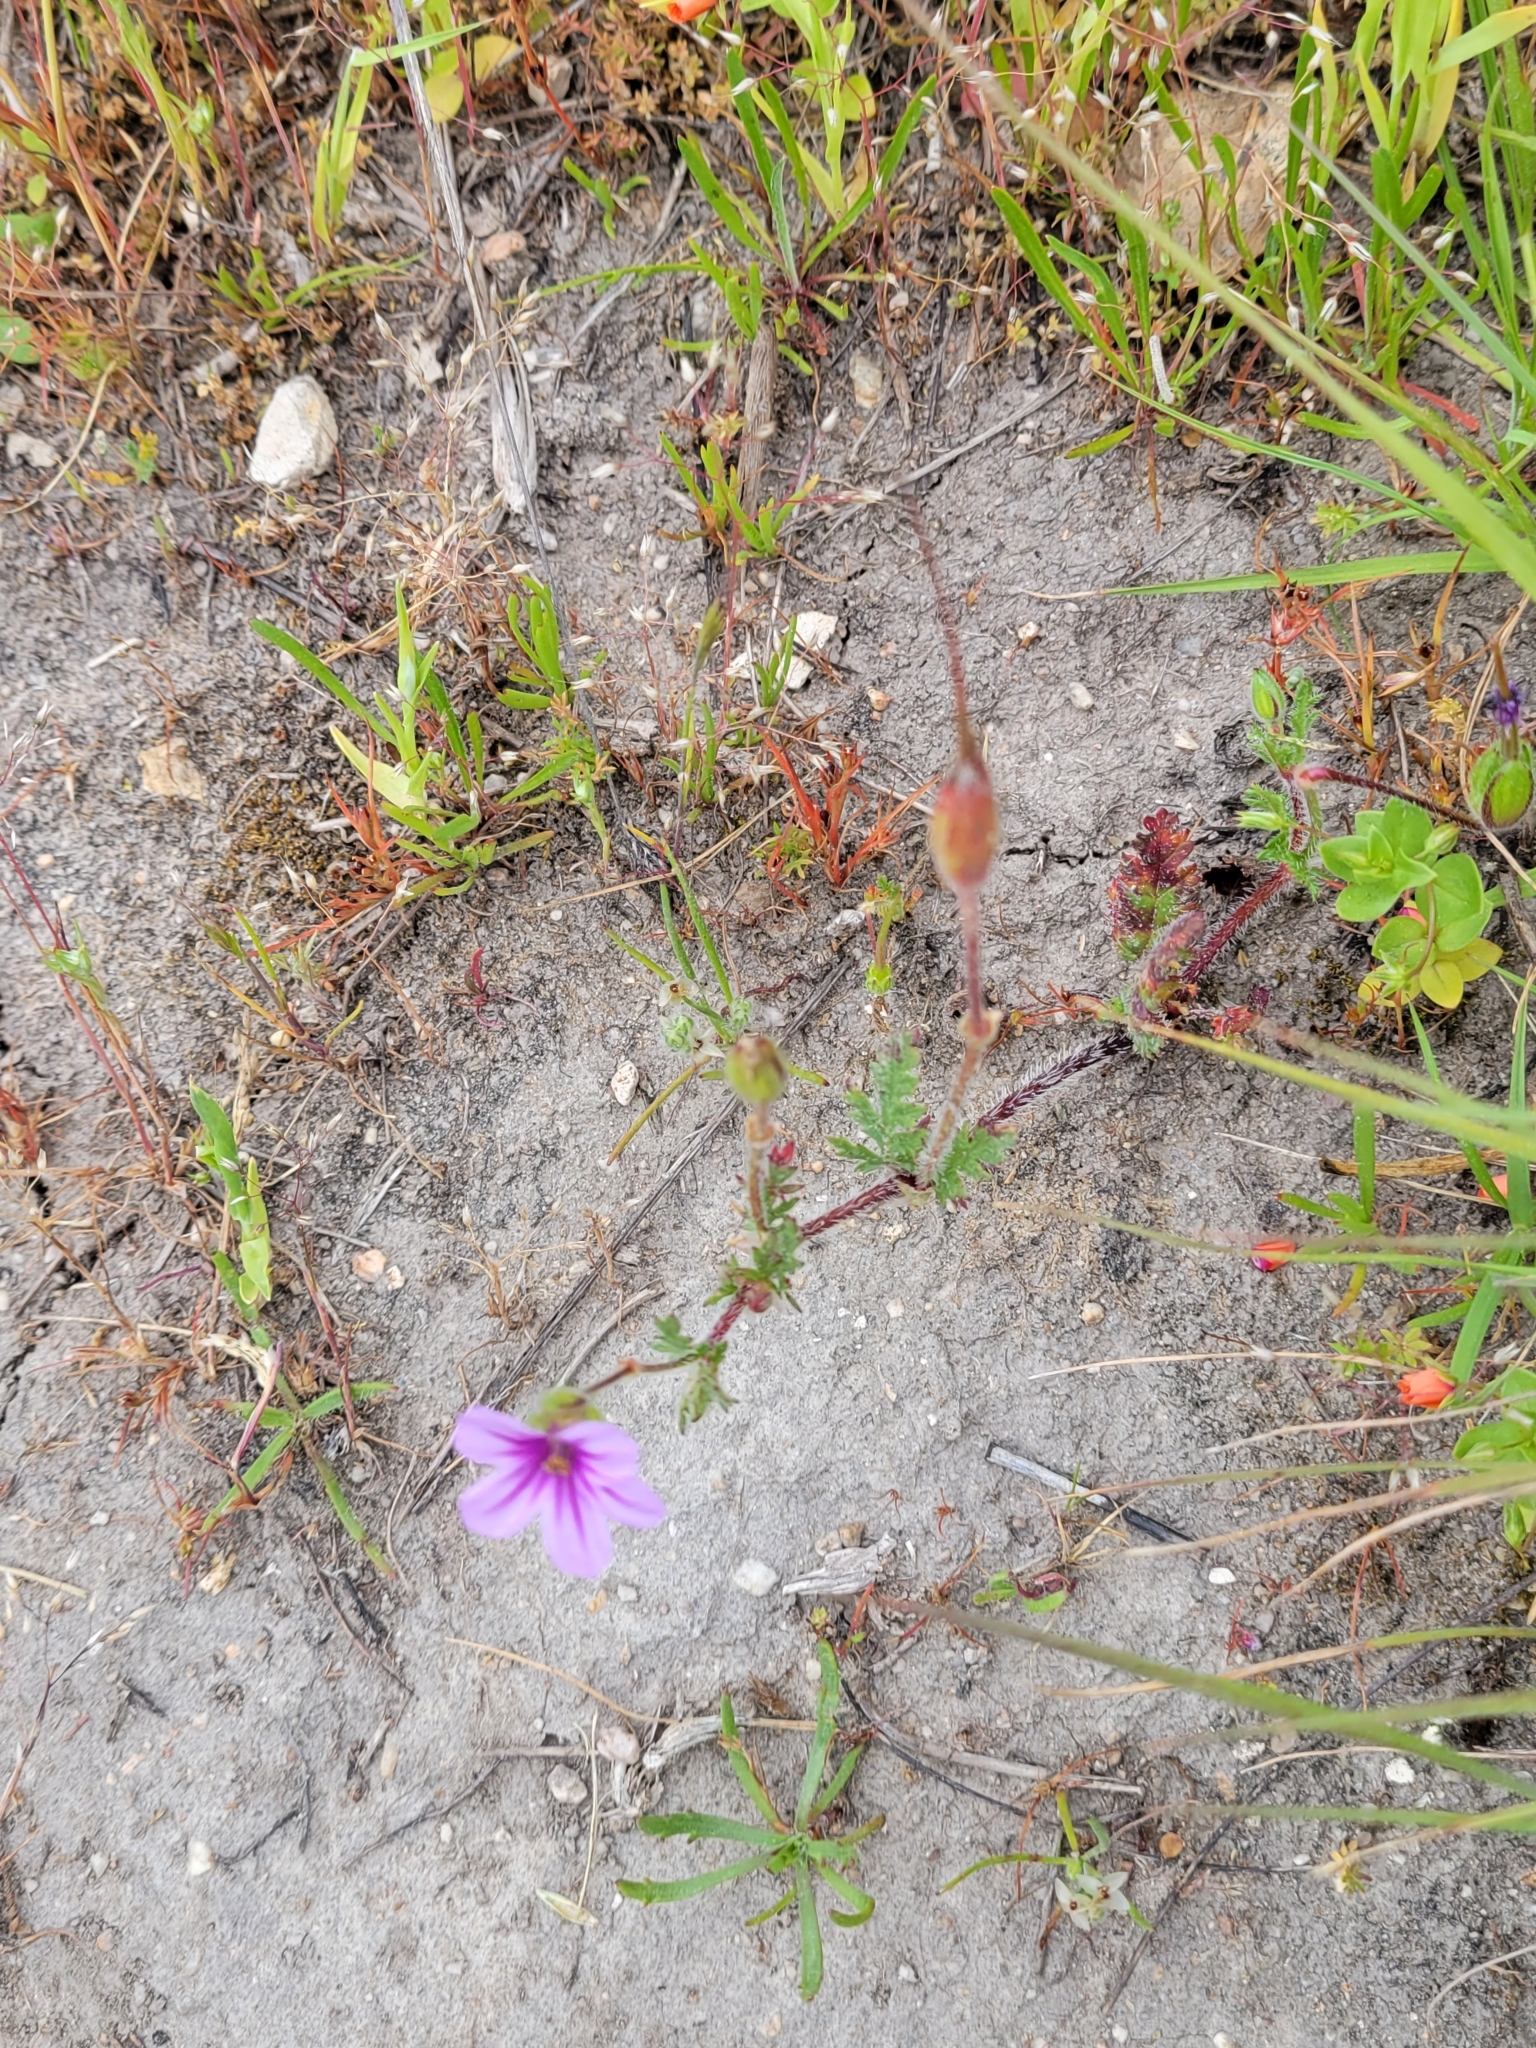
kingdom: Plantae
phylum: Tracheophyta
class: Magnoliopsida
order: Geraniales
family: Geraniaceae
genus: Erodium
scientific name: Erodium botrys
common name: Mediterranean stork's-bill
